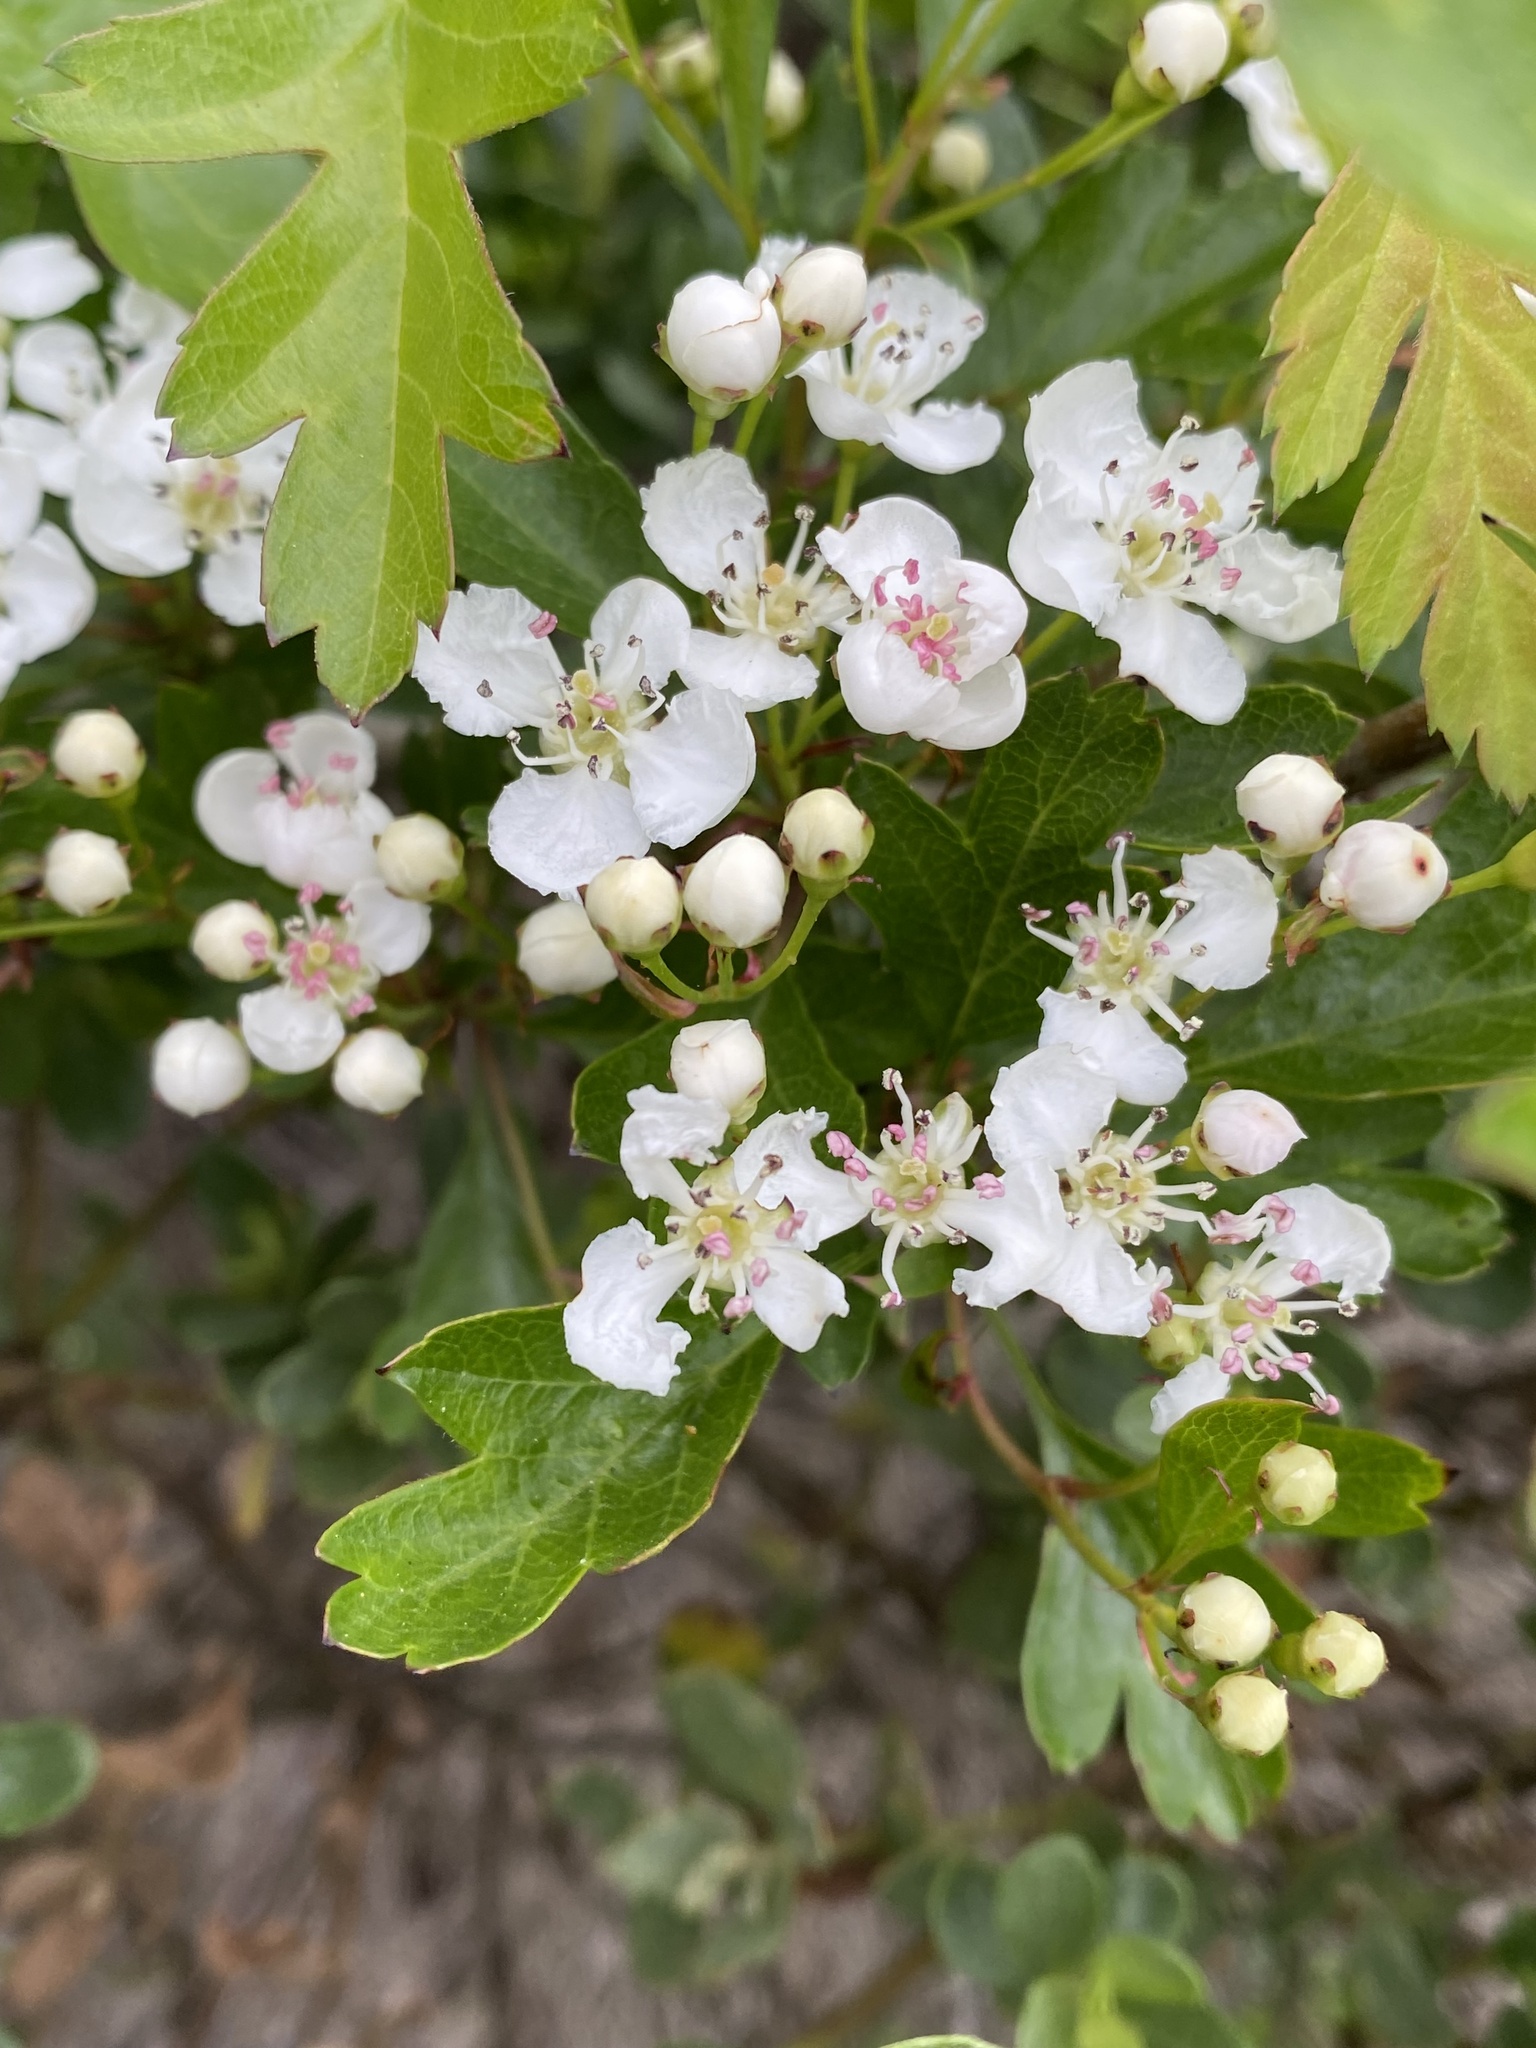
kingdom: Plantae
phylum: Tracheophyta
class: Magnoliopsida
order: Rosales
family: Rosaceae
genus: Crataegus
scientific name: Crataegus monogyna
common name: Hawthorn
